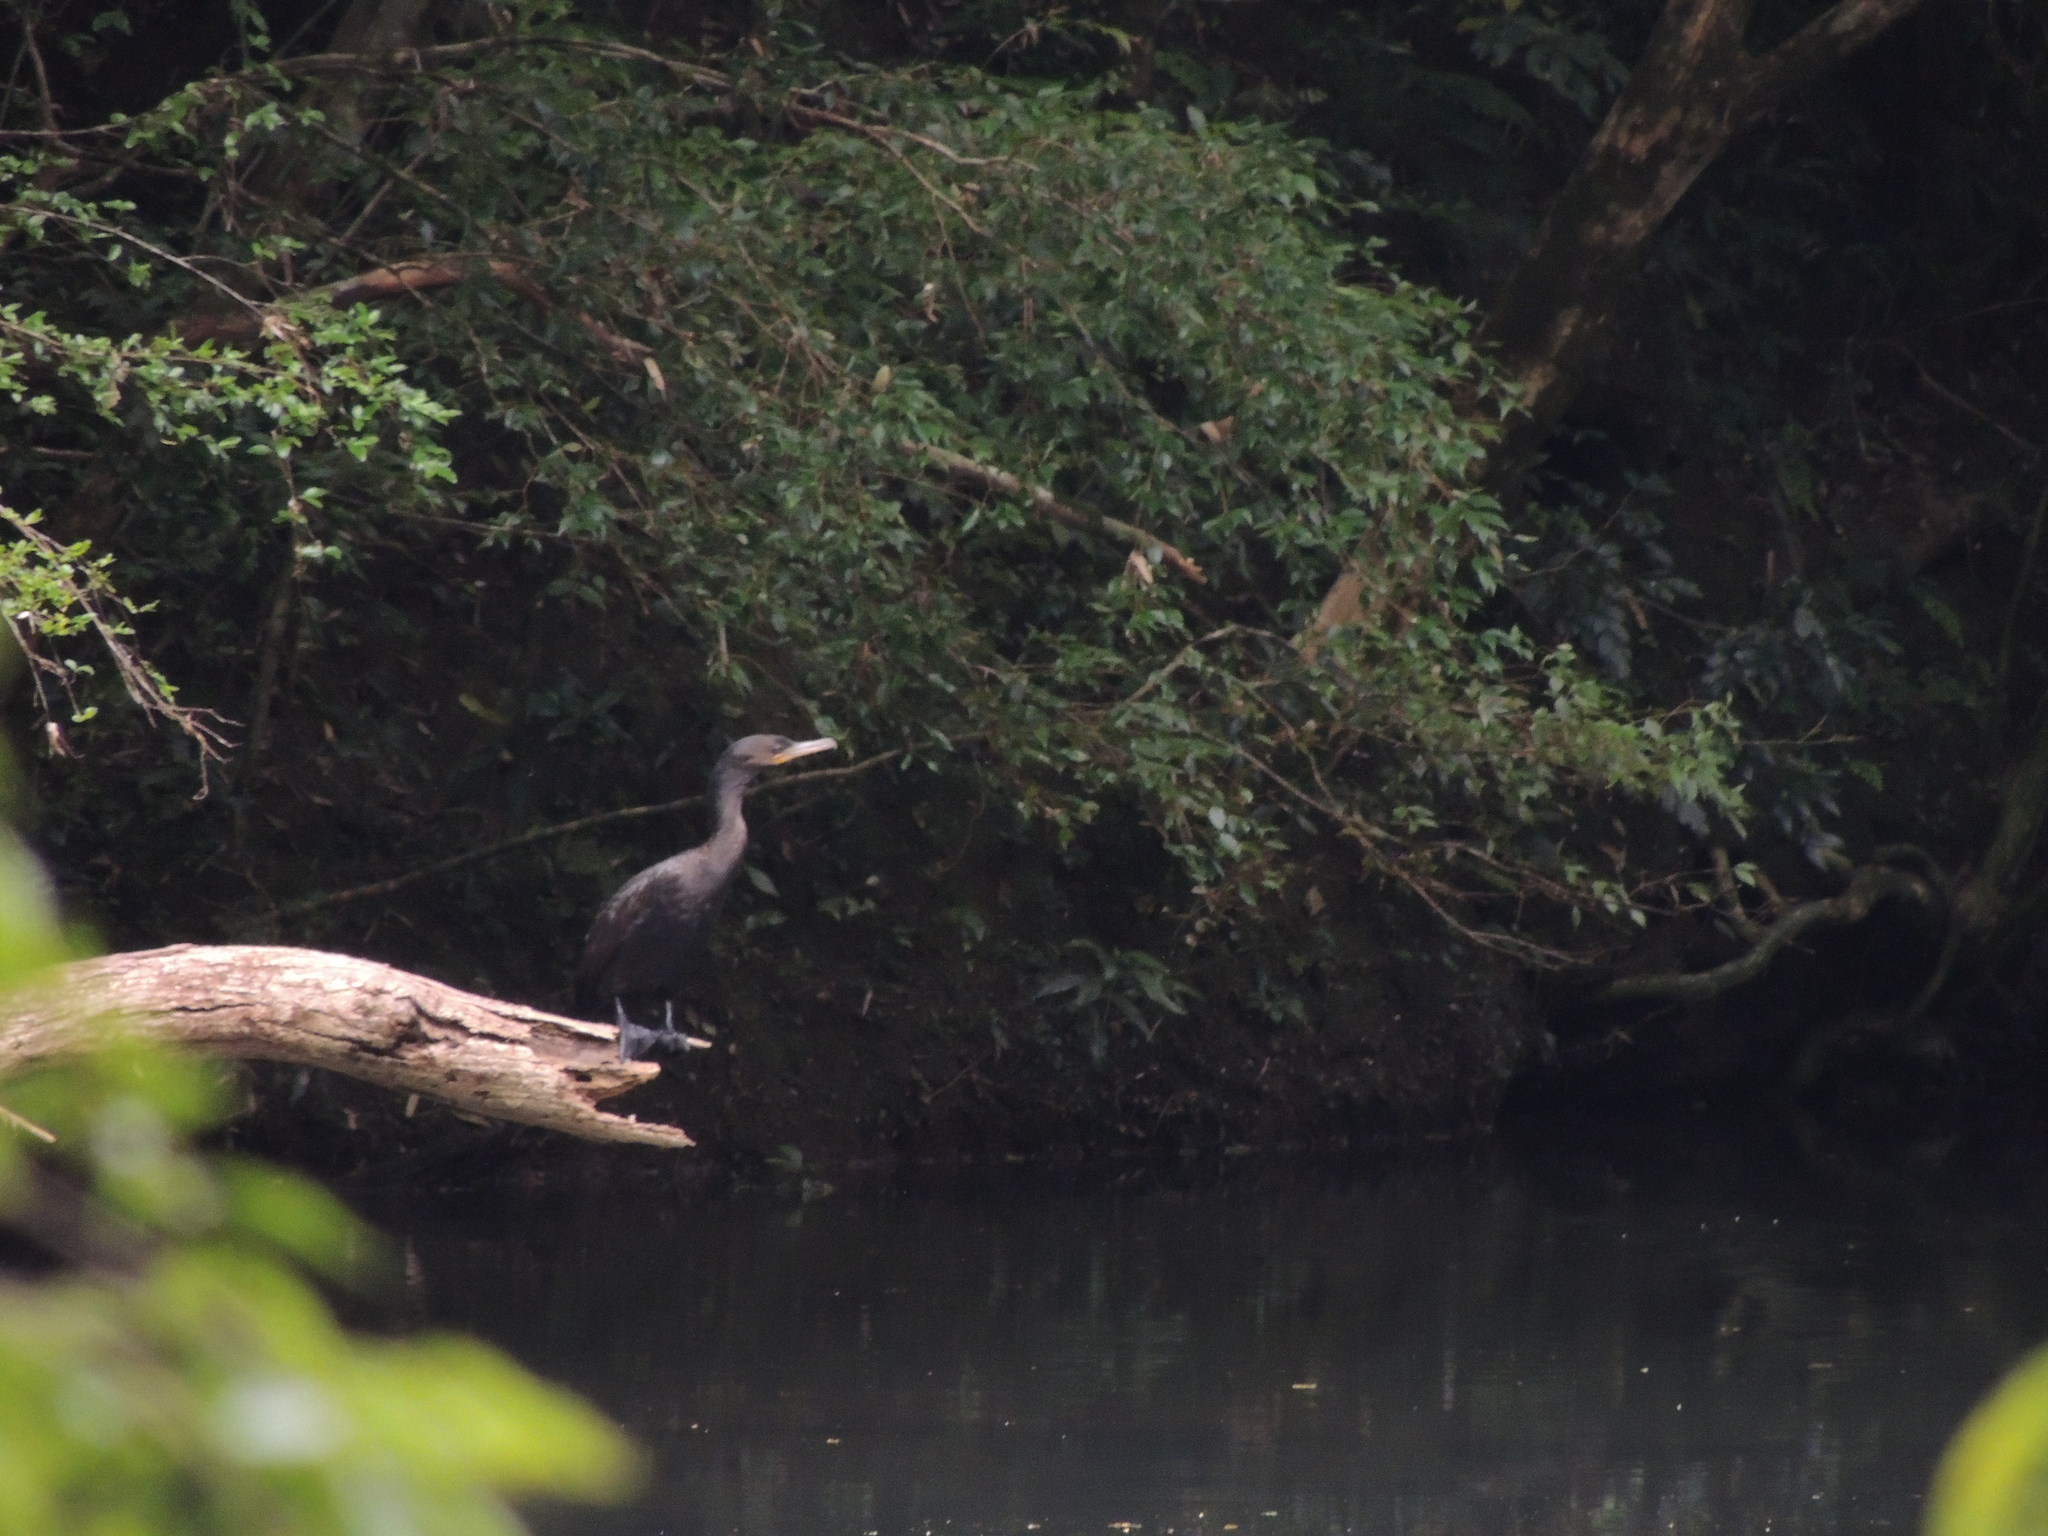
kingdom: Animalia
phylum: Chordata
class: Aves
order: Suliformes
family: Phalacrocoracidae
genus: Phalacrocorax
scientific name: Phalacrocorax brasilianus
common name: Neotropic cormorant
